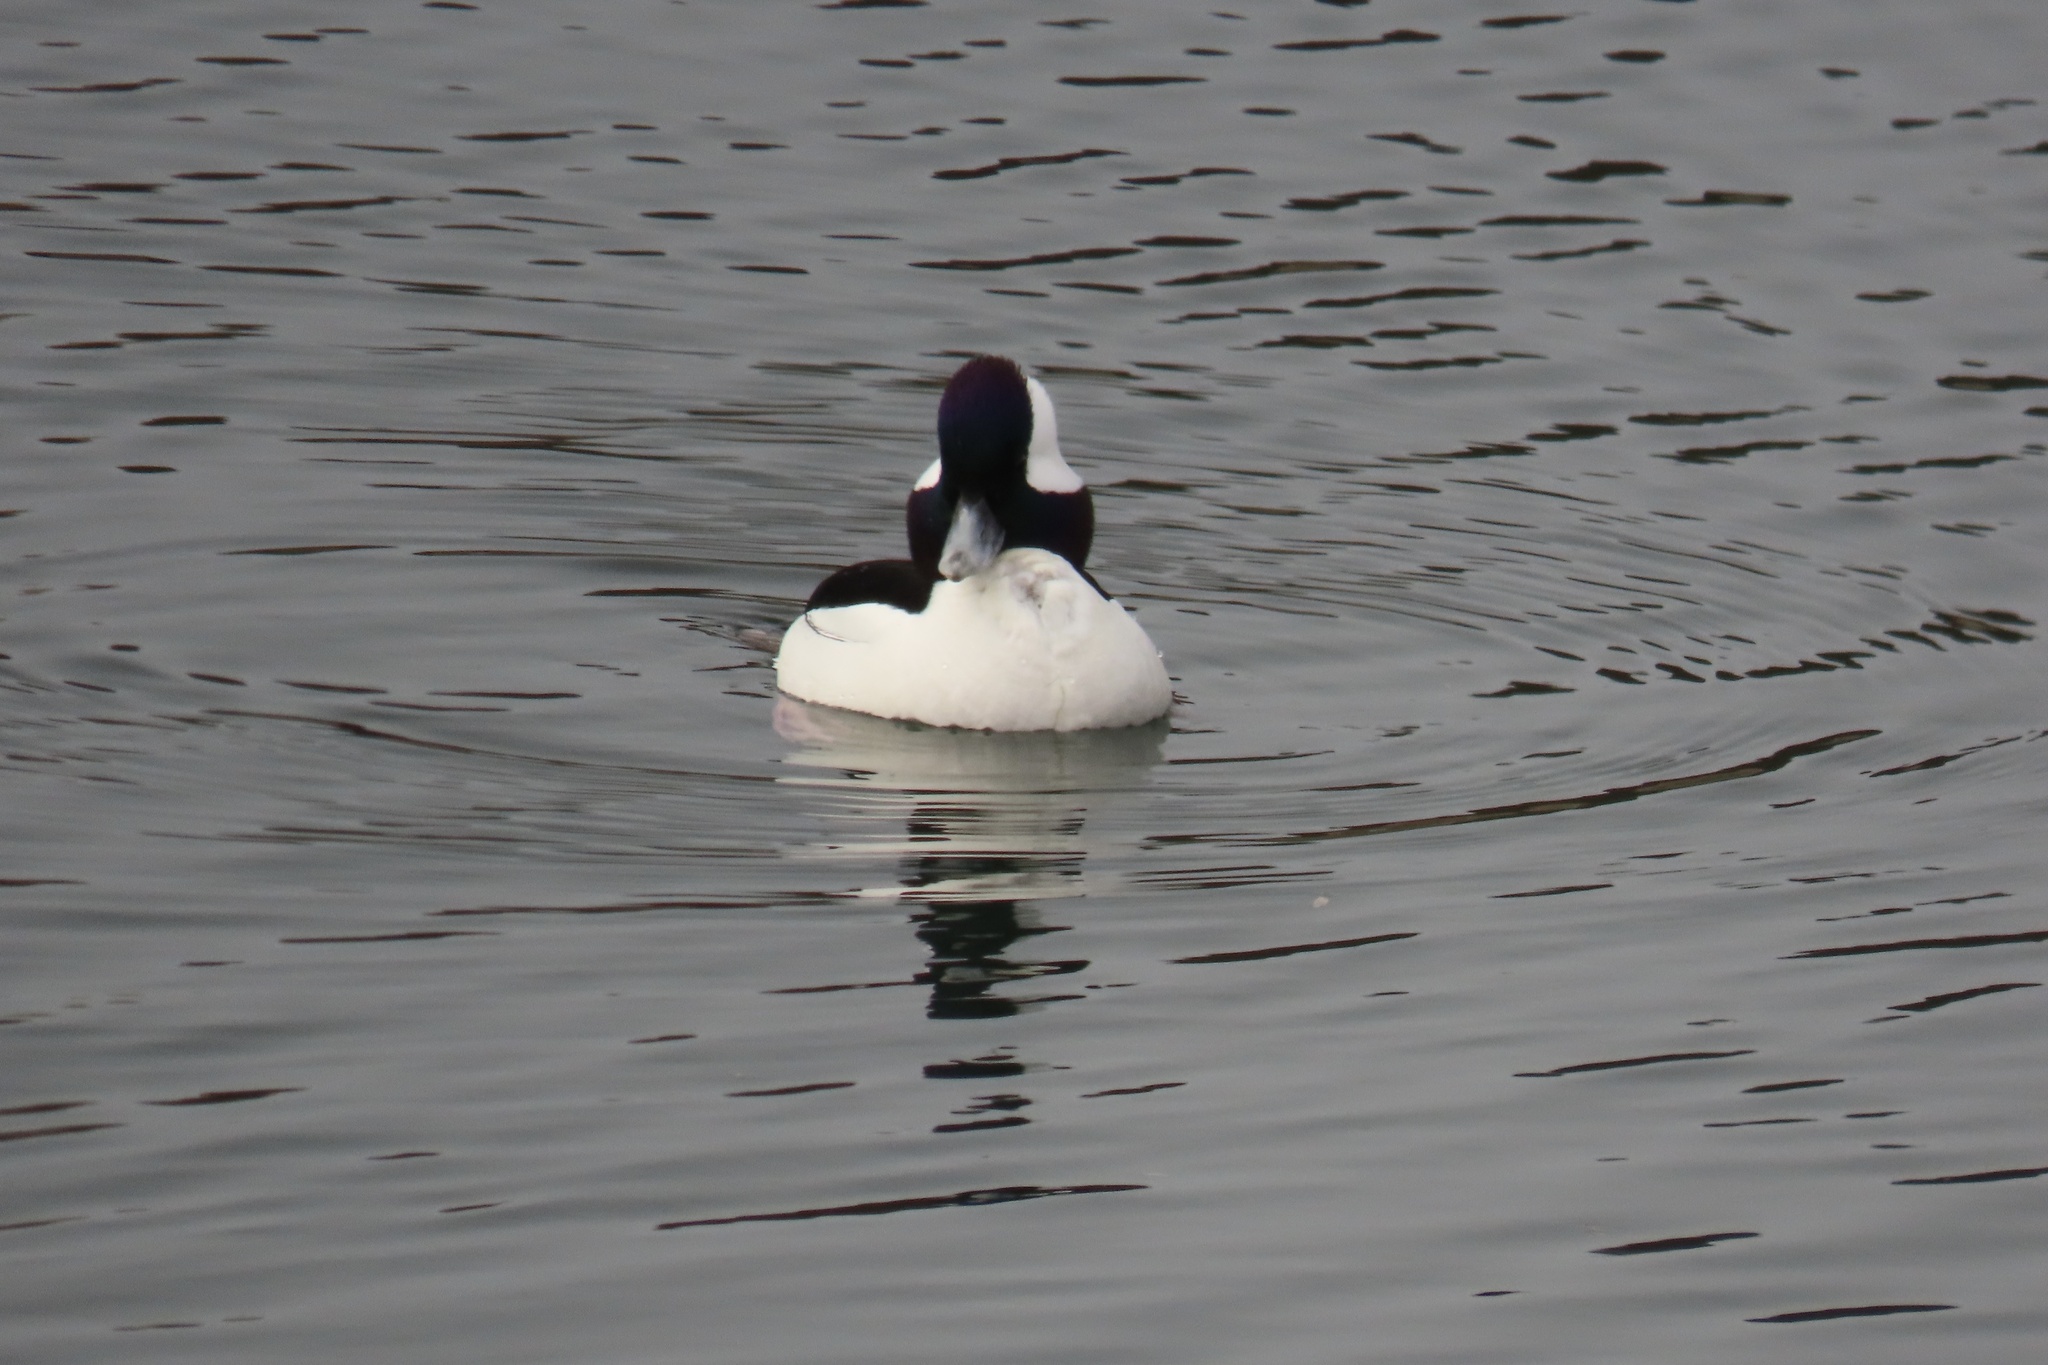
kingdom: Animalia
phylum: Chordata
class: Aves
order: Anseriformes
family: Anatidae
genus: Bucephala
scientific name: Bucephala albeola
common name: Bufflehead
